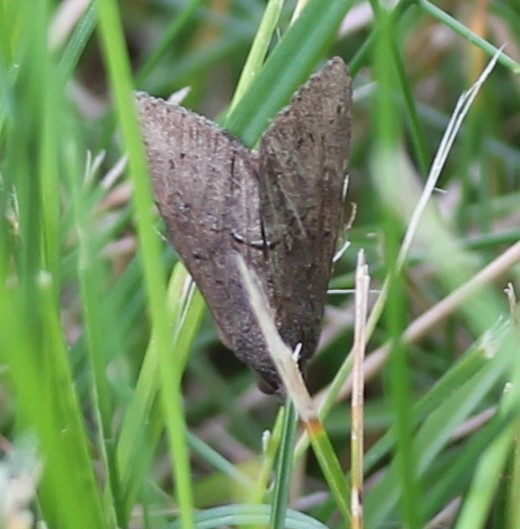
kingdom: Animalia
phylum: Arthropoda
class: Insecta
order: Lepidoptera
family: Erebidae
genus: Hypena
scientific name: Hypena scabra
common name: Green cloverworm
